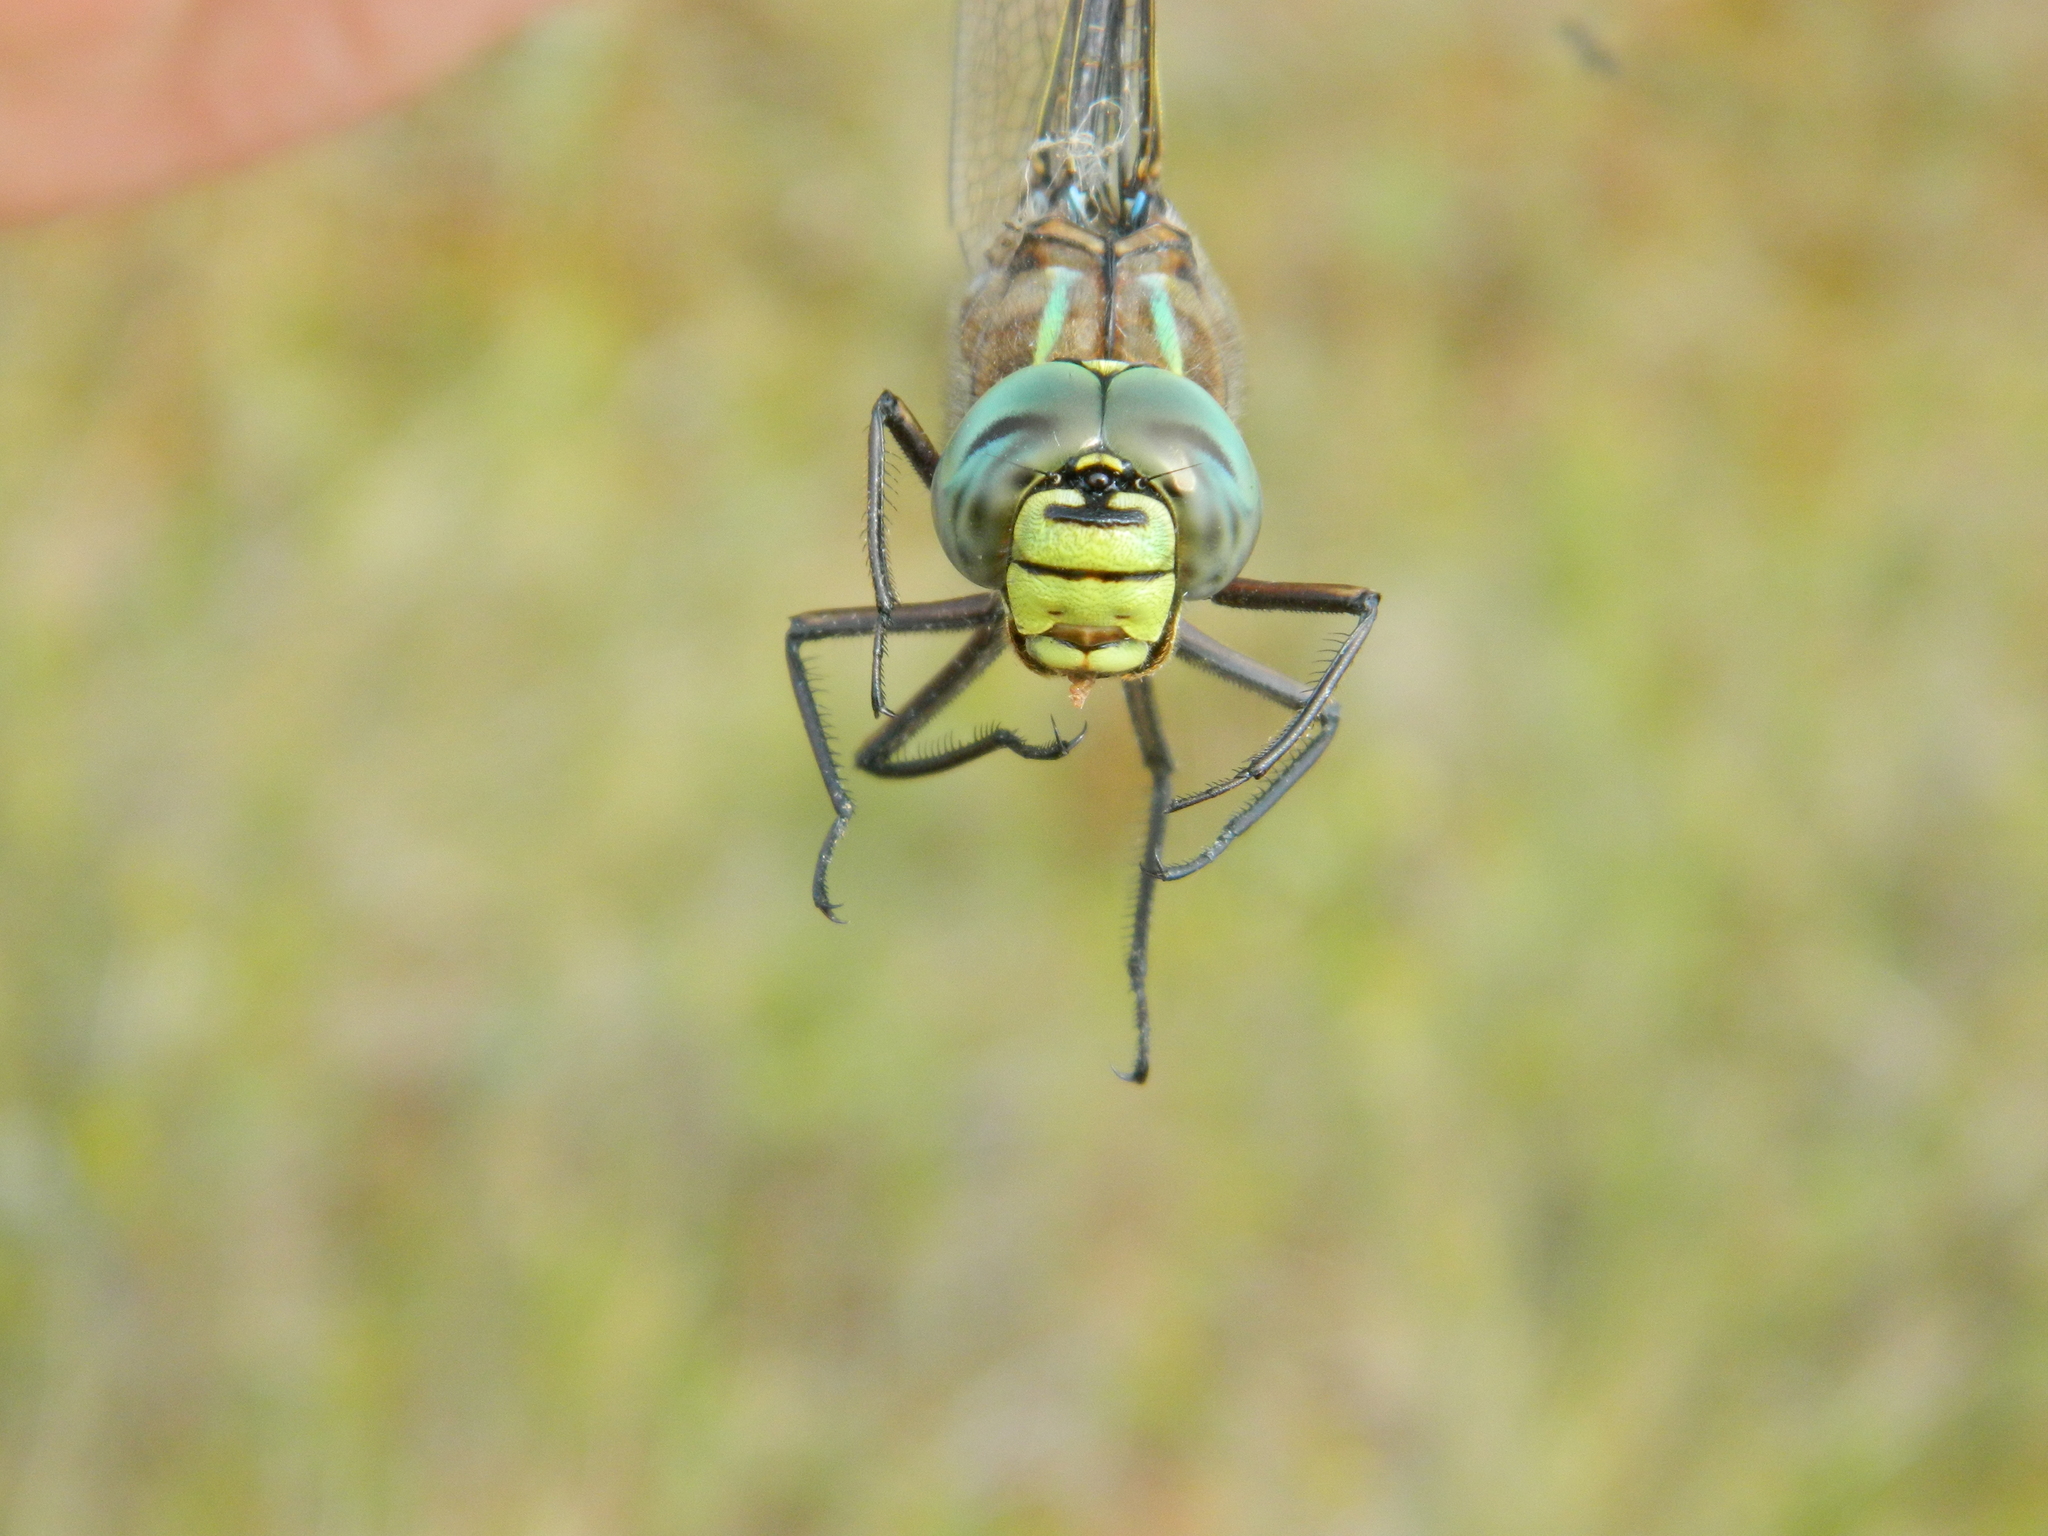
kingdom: Animalia
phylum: Arthropoda
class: Insecta
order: Odonata
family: Aeshnidae
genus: Aeshna
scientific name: Aeshna eremita
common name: Lake darner
